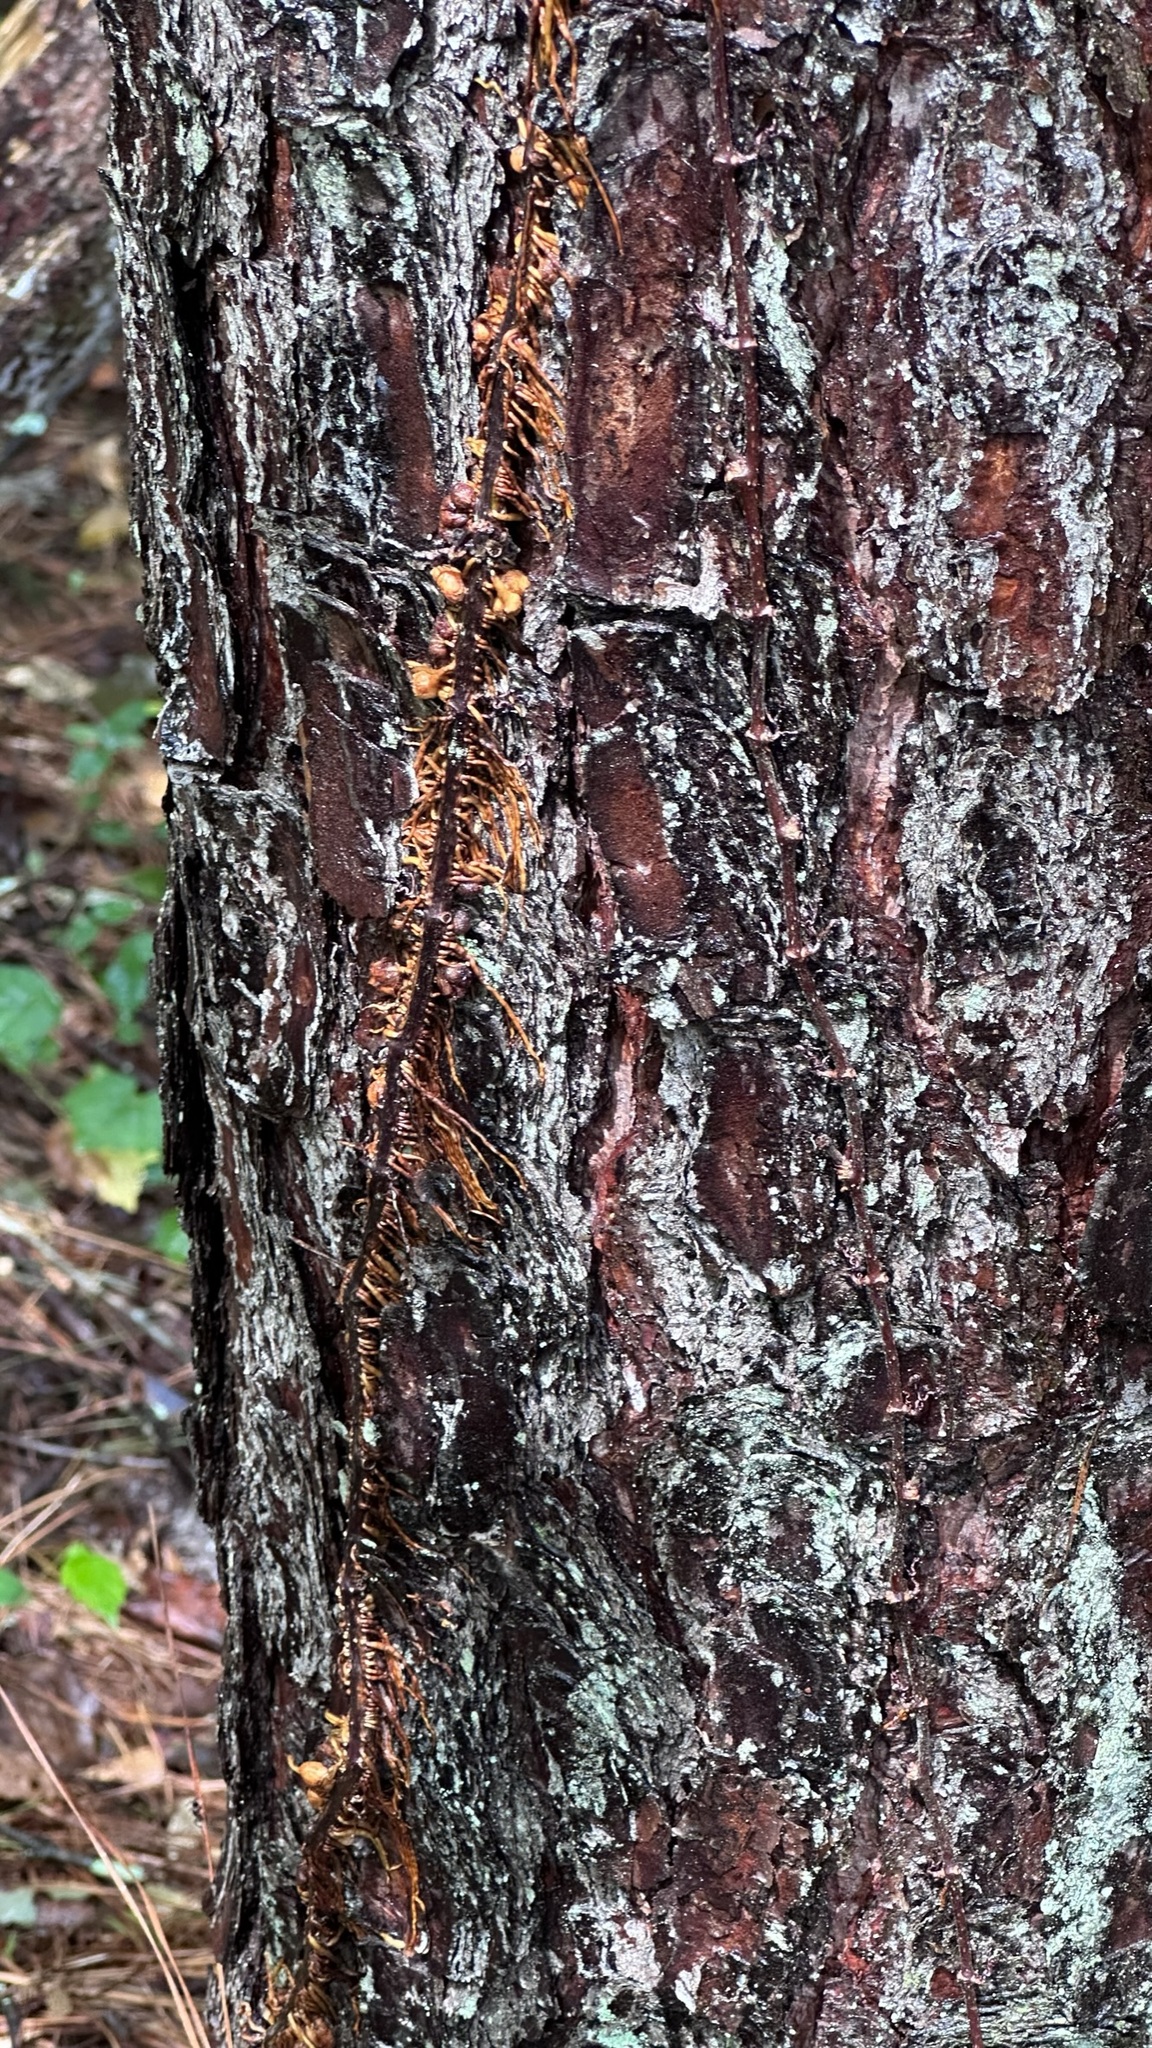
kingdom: Animalia
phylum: Arthropoda
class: Insecta
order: Diptera
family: Cecidomyiidae
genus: Lasioptera
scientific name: Lasioptera psederae
